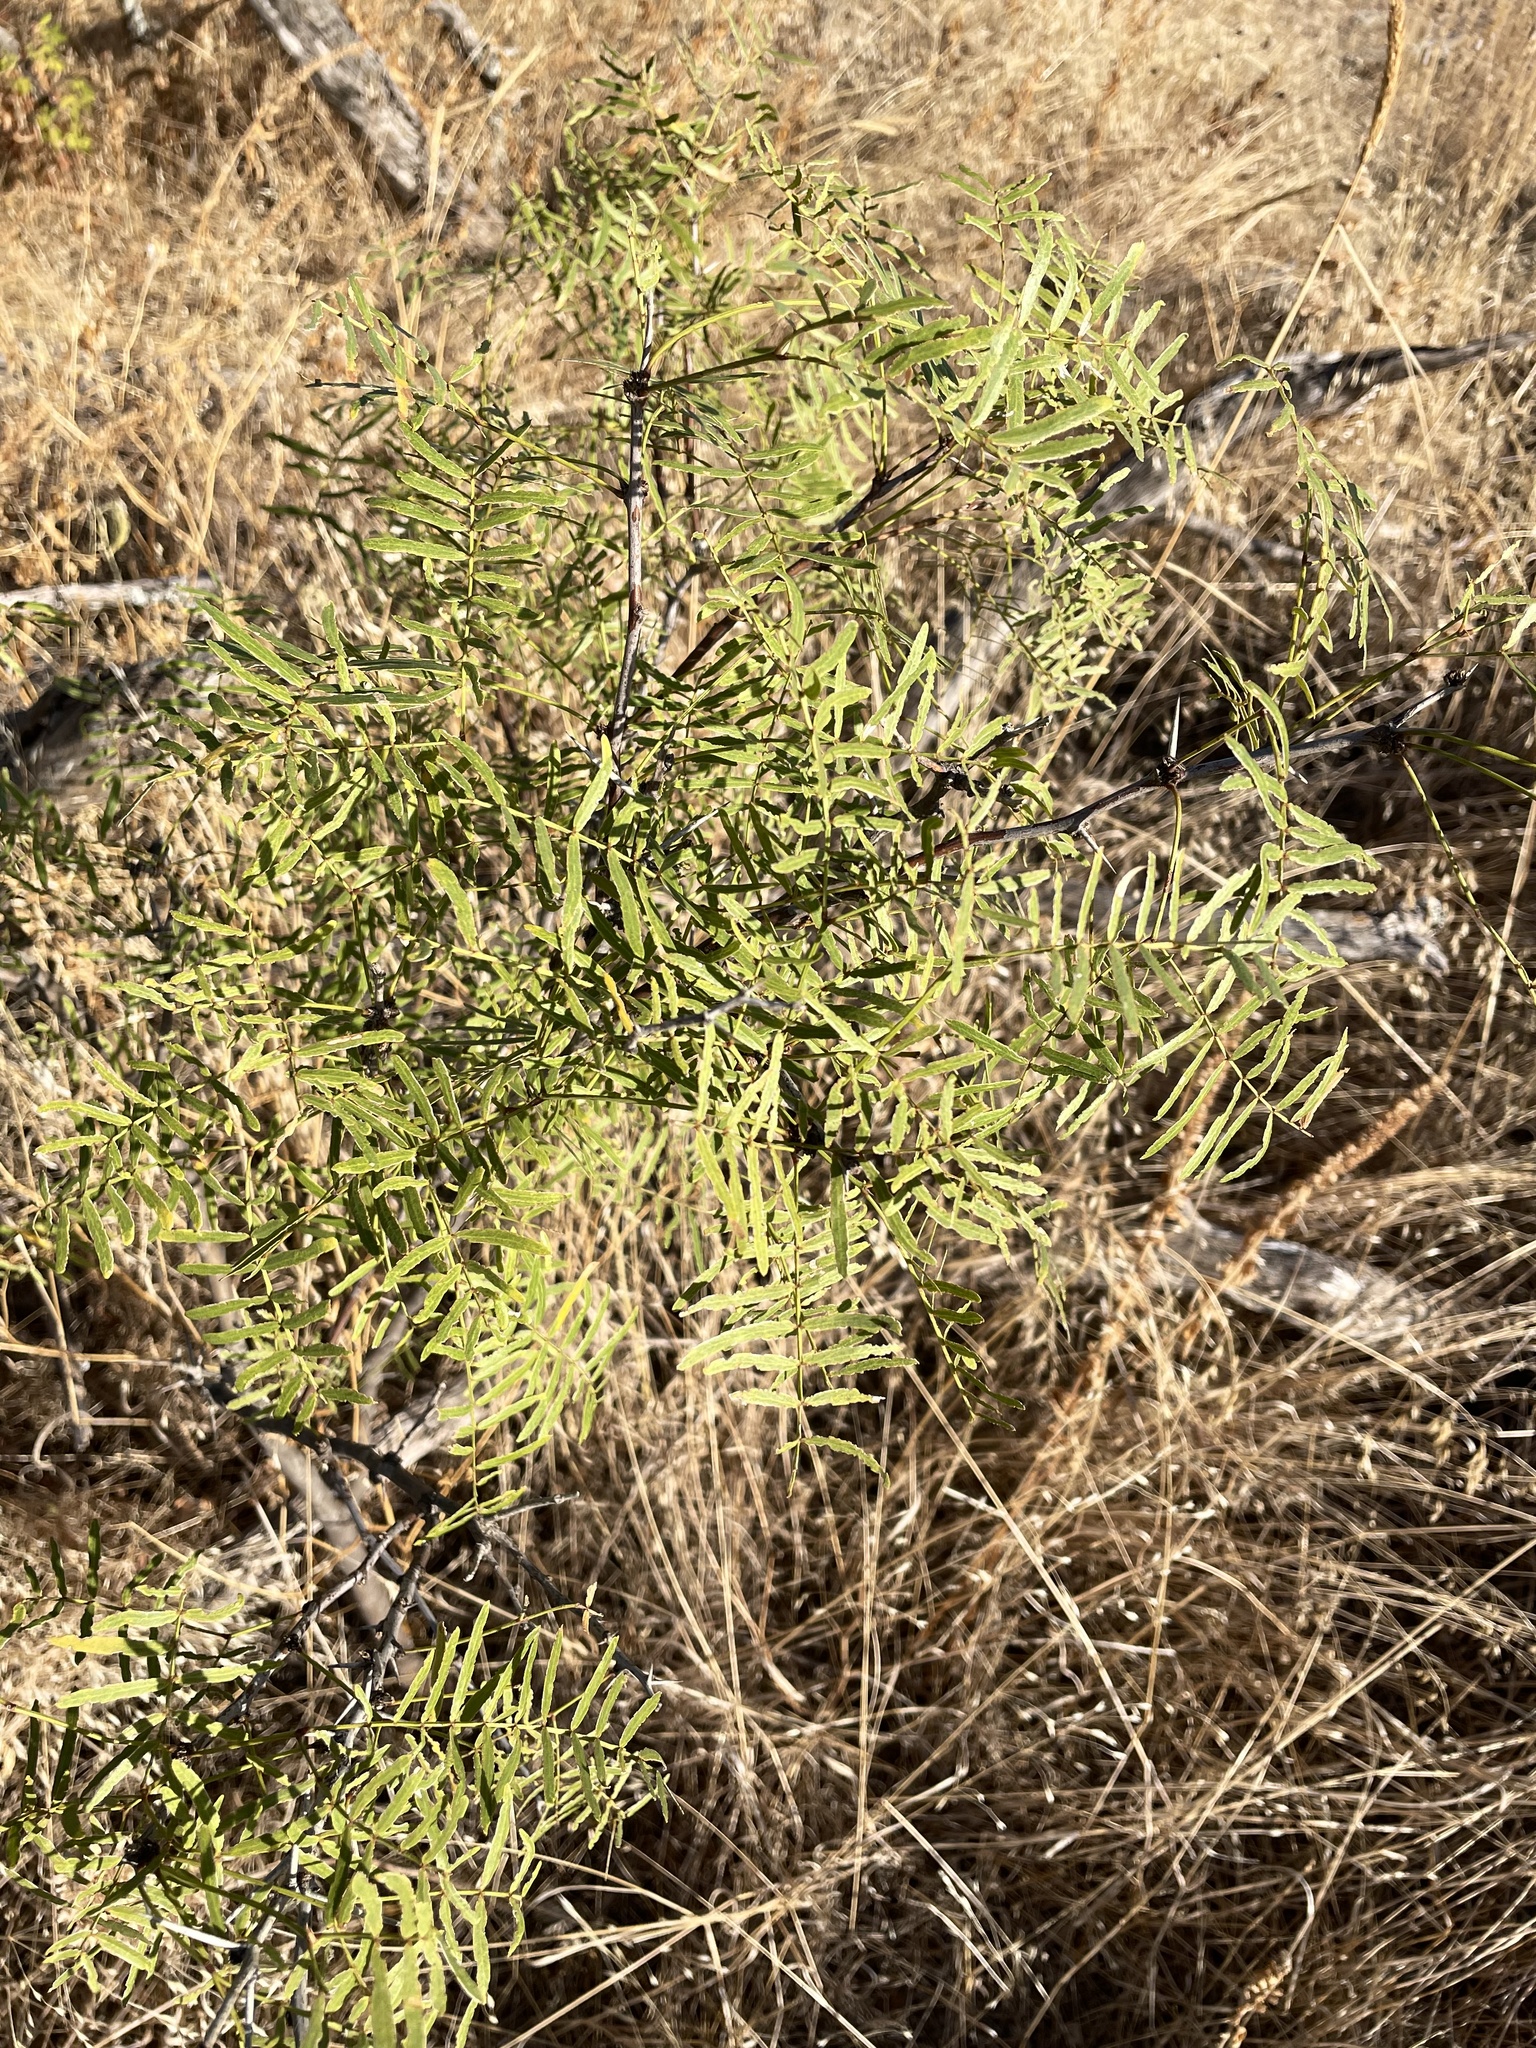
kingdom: Plantae
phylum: Tracheophyta
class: Magnoliopsida
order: Fabales
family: Fabaceae
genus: Prosopis
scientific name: Prosopis glandulosa
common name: Honey mesquite
